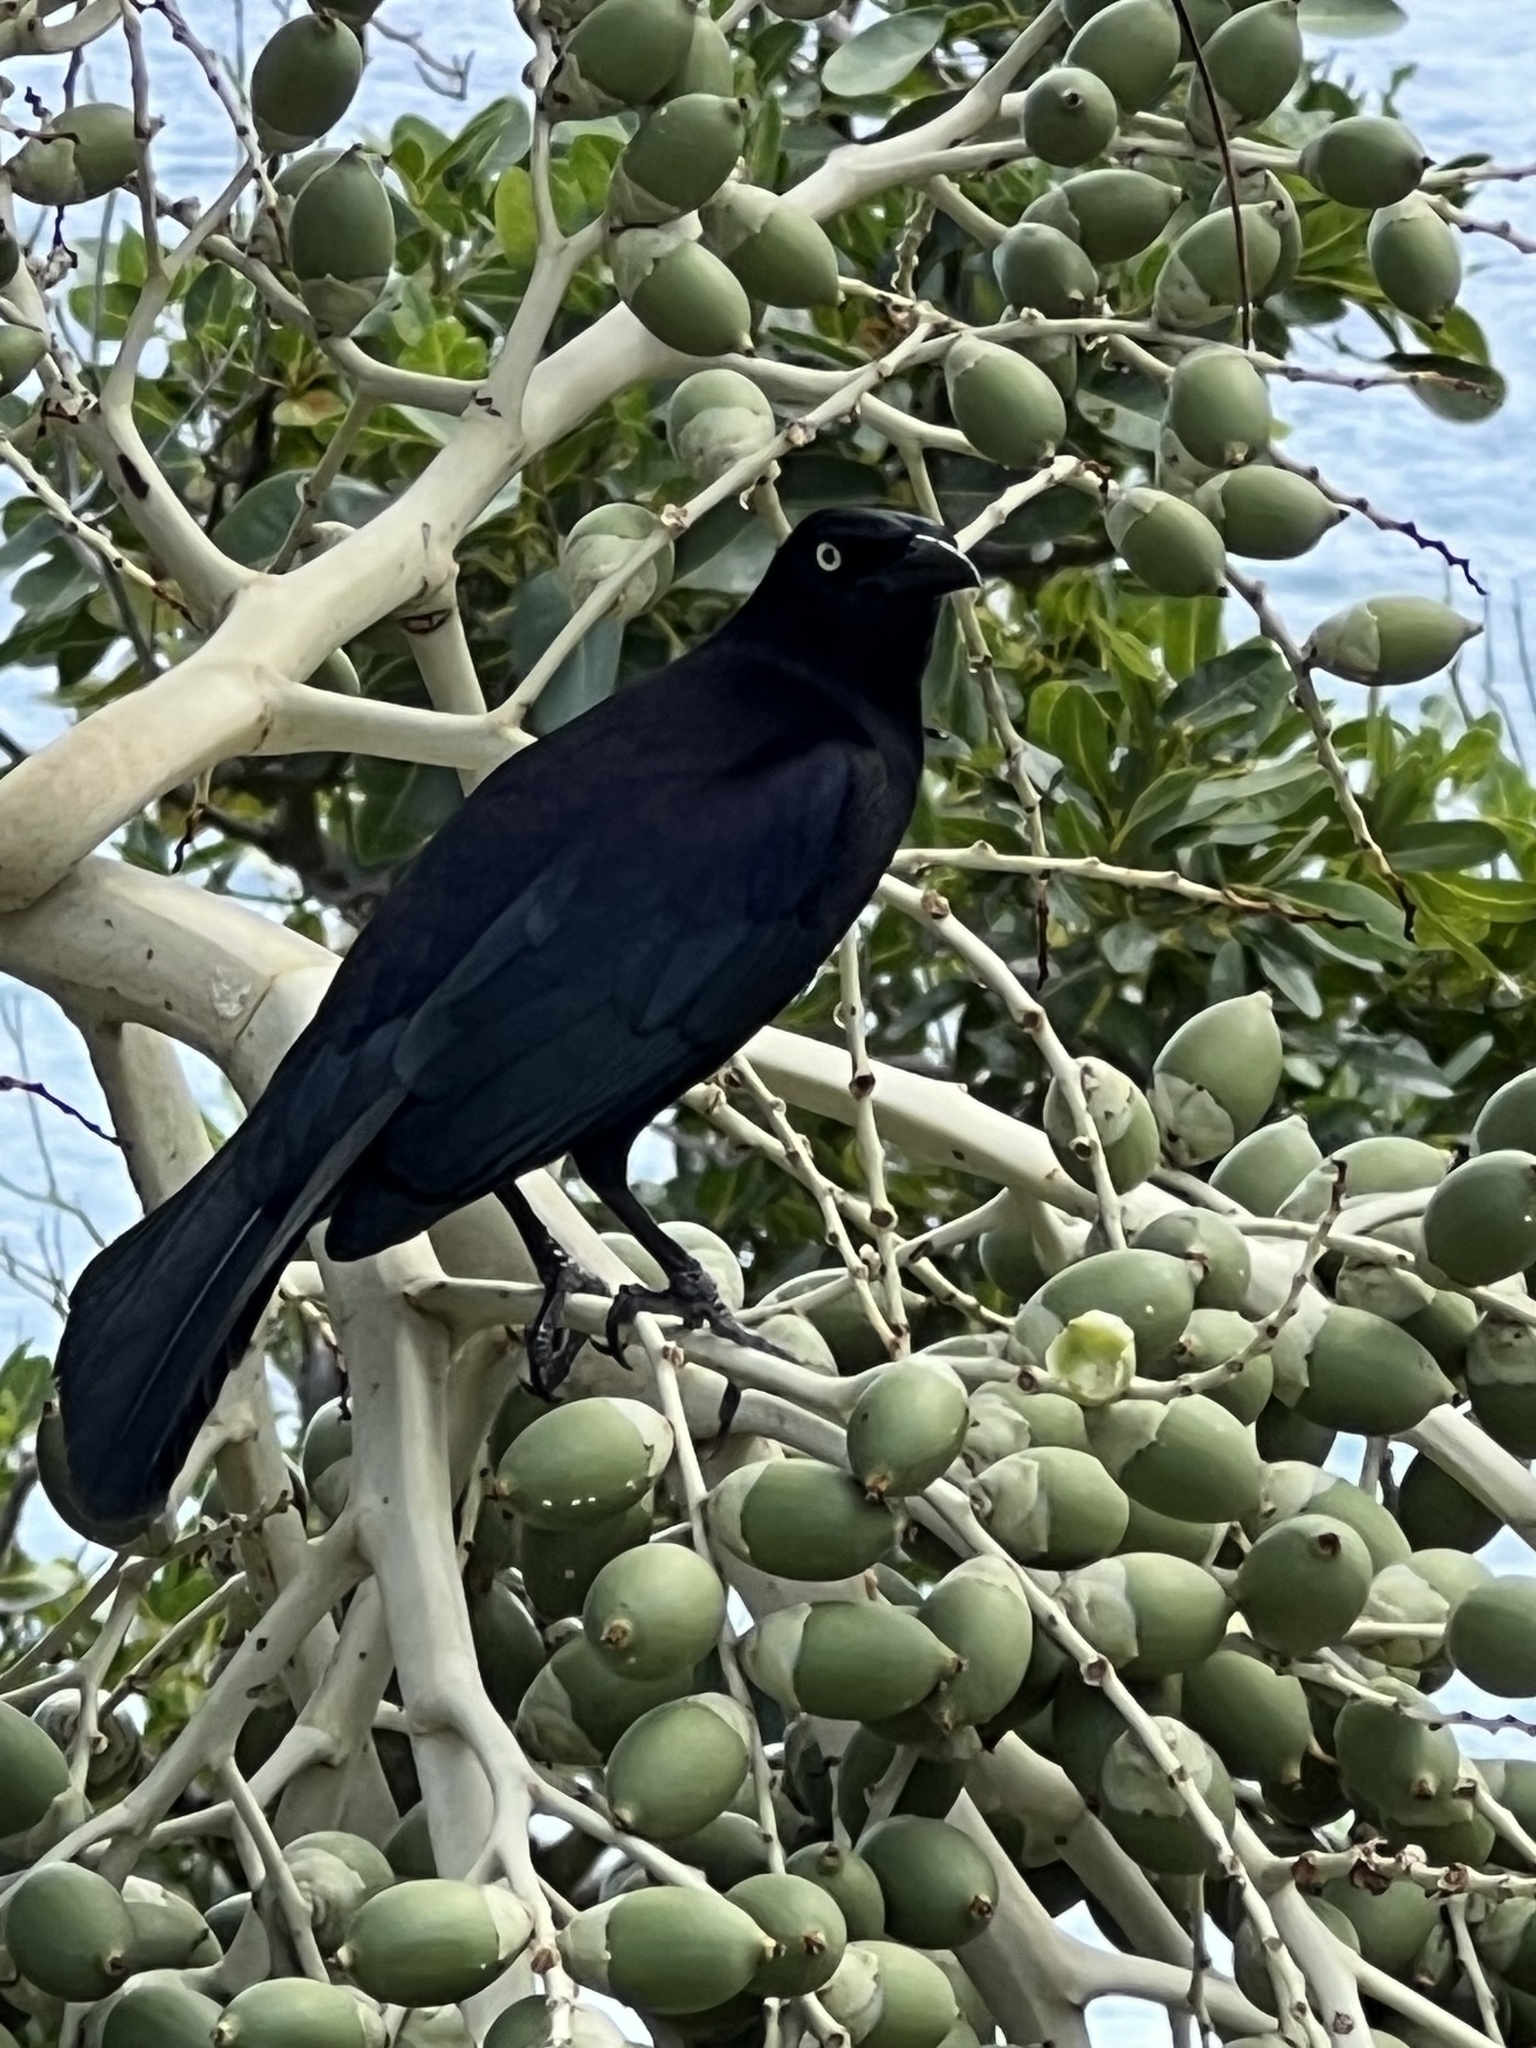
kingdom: Animalia
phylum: Chordata
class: Aves
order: Passeriformes
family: Icteridae
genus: Quiscalus
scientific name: Quiscalus lugubris
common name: Carib grackle
